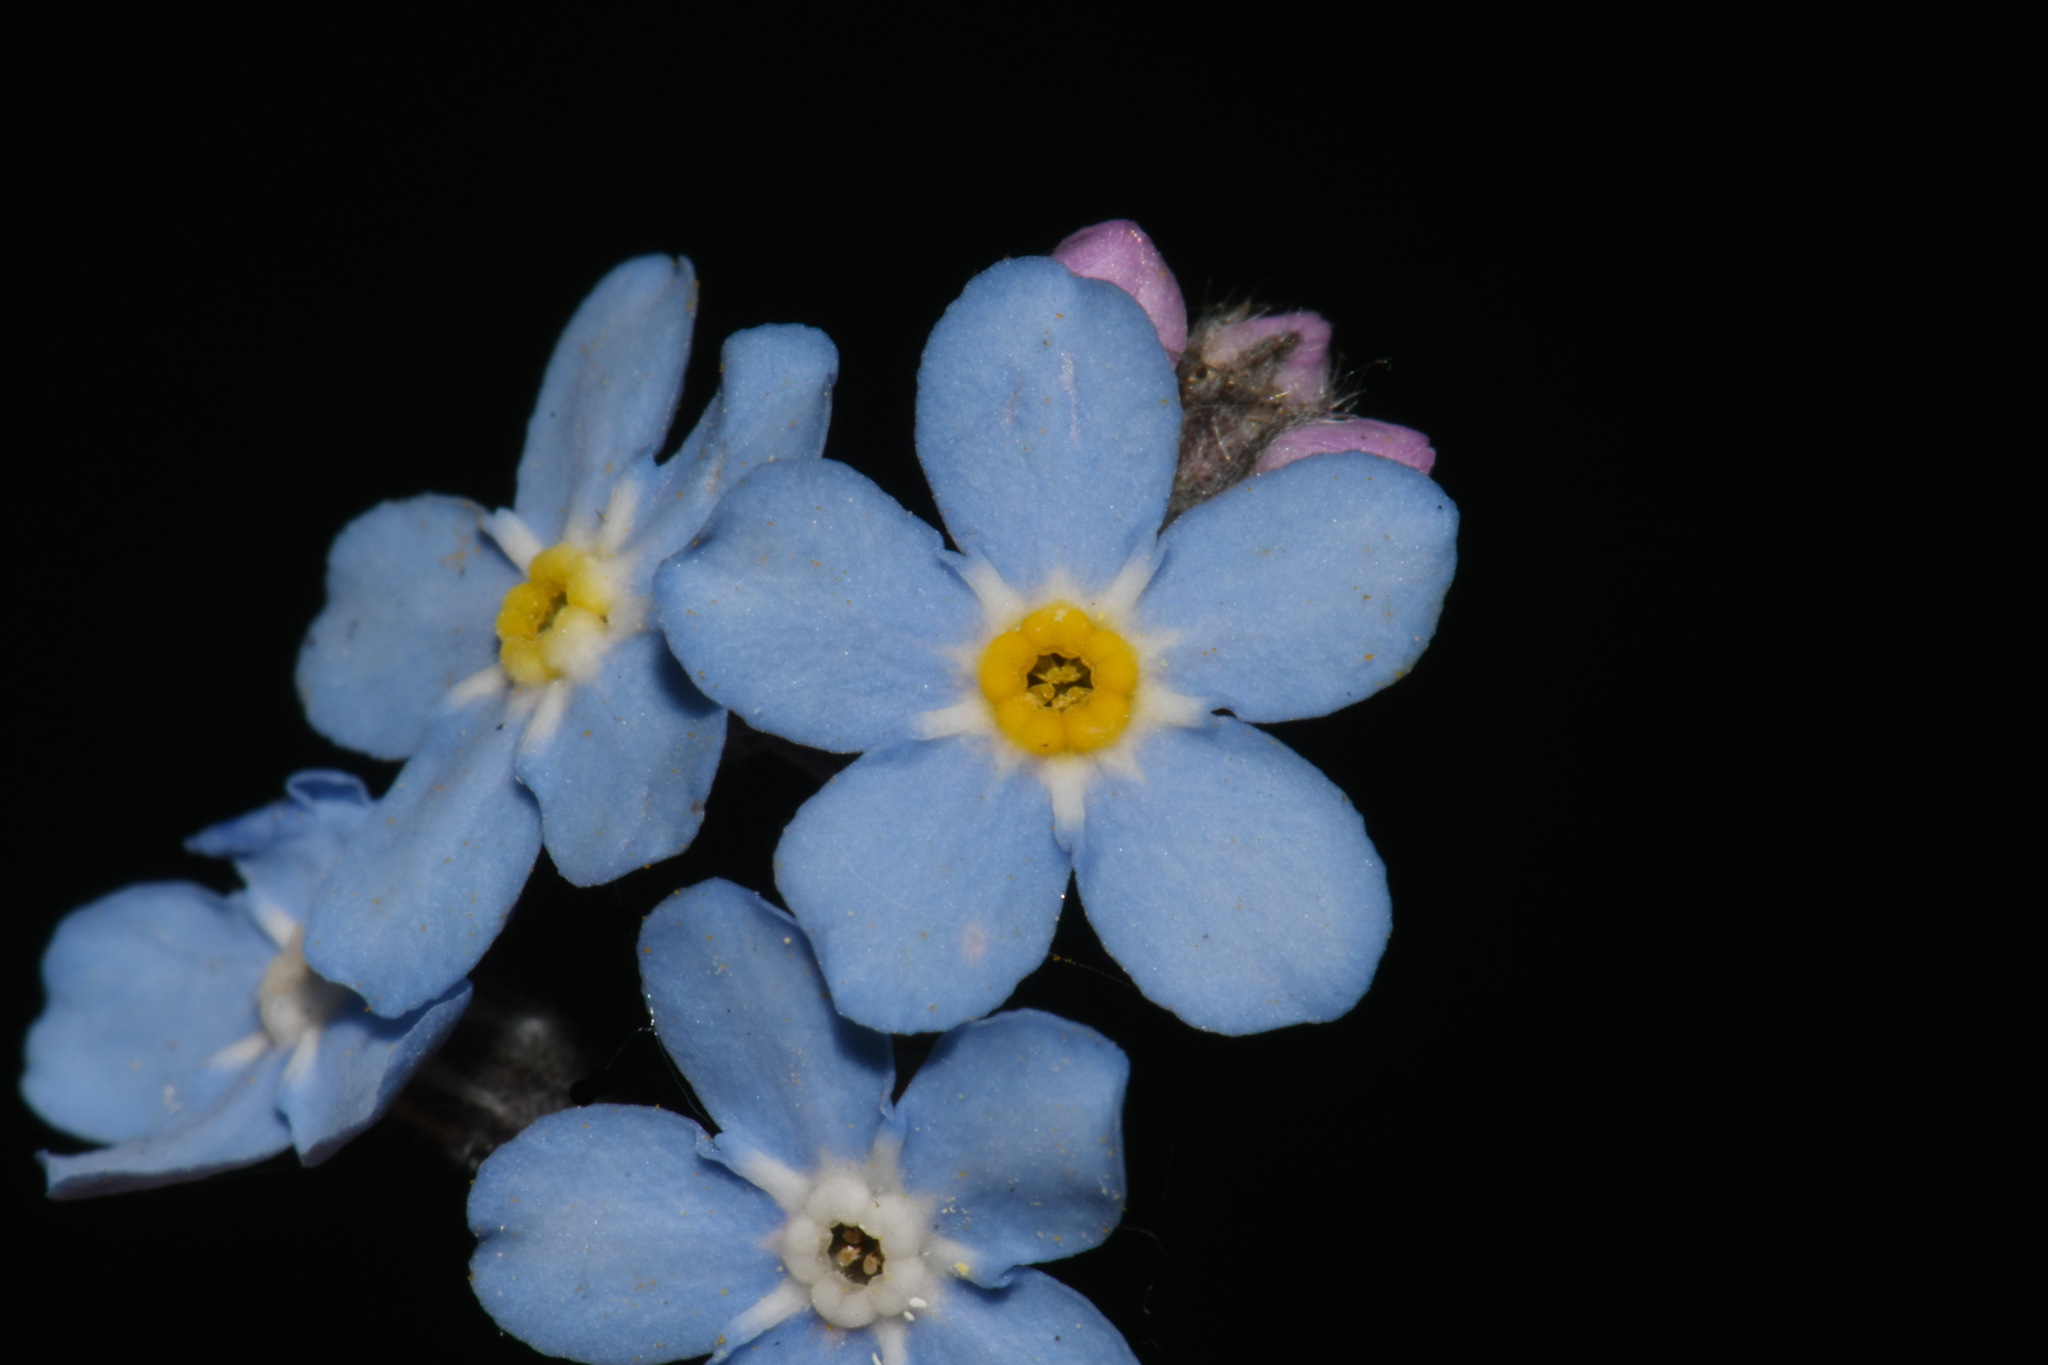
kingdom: Plantae
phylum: Tracheophyta
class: Magnoliopsida
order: Boraginales
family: Boraginaceae
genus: Myosotis
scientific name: Myosotis sylvatica
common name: Wood forget-me-not
